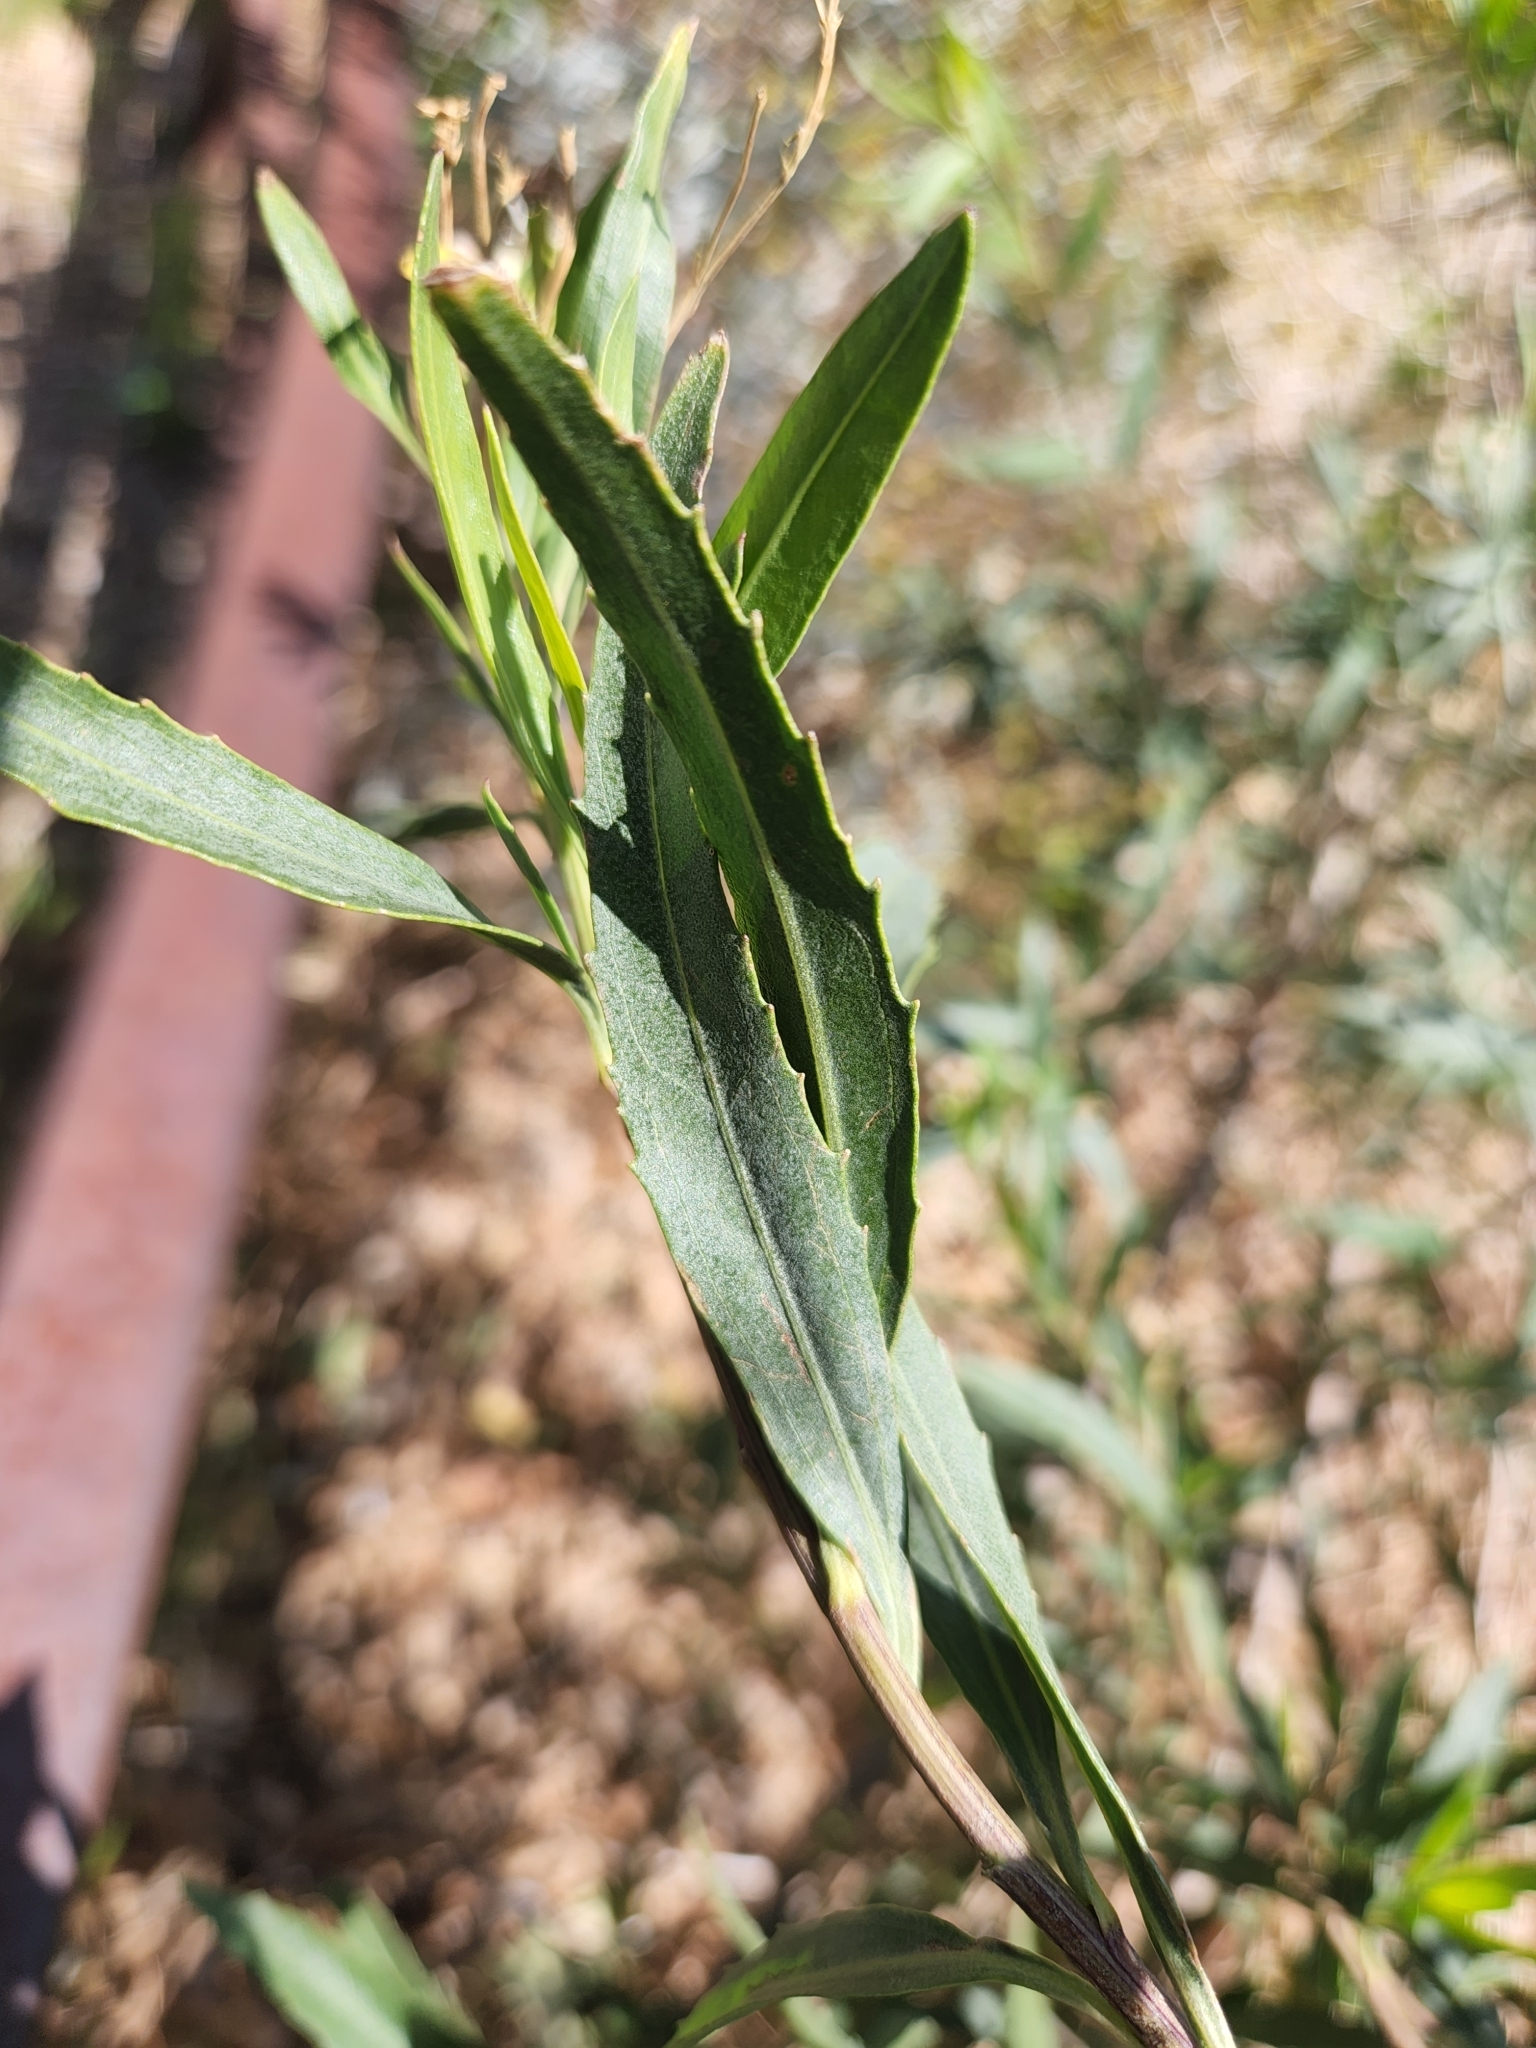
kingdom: Plantae
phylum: Tracheophyta
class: Magnoliopsida
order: Asterales
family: Asteraceae
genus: Baccharis
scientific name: Baccharis salicifolia
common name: Sticky baccharis
